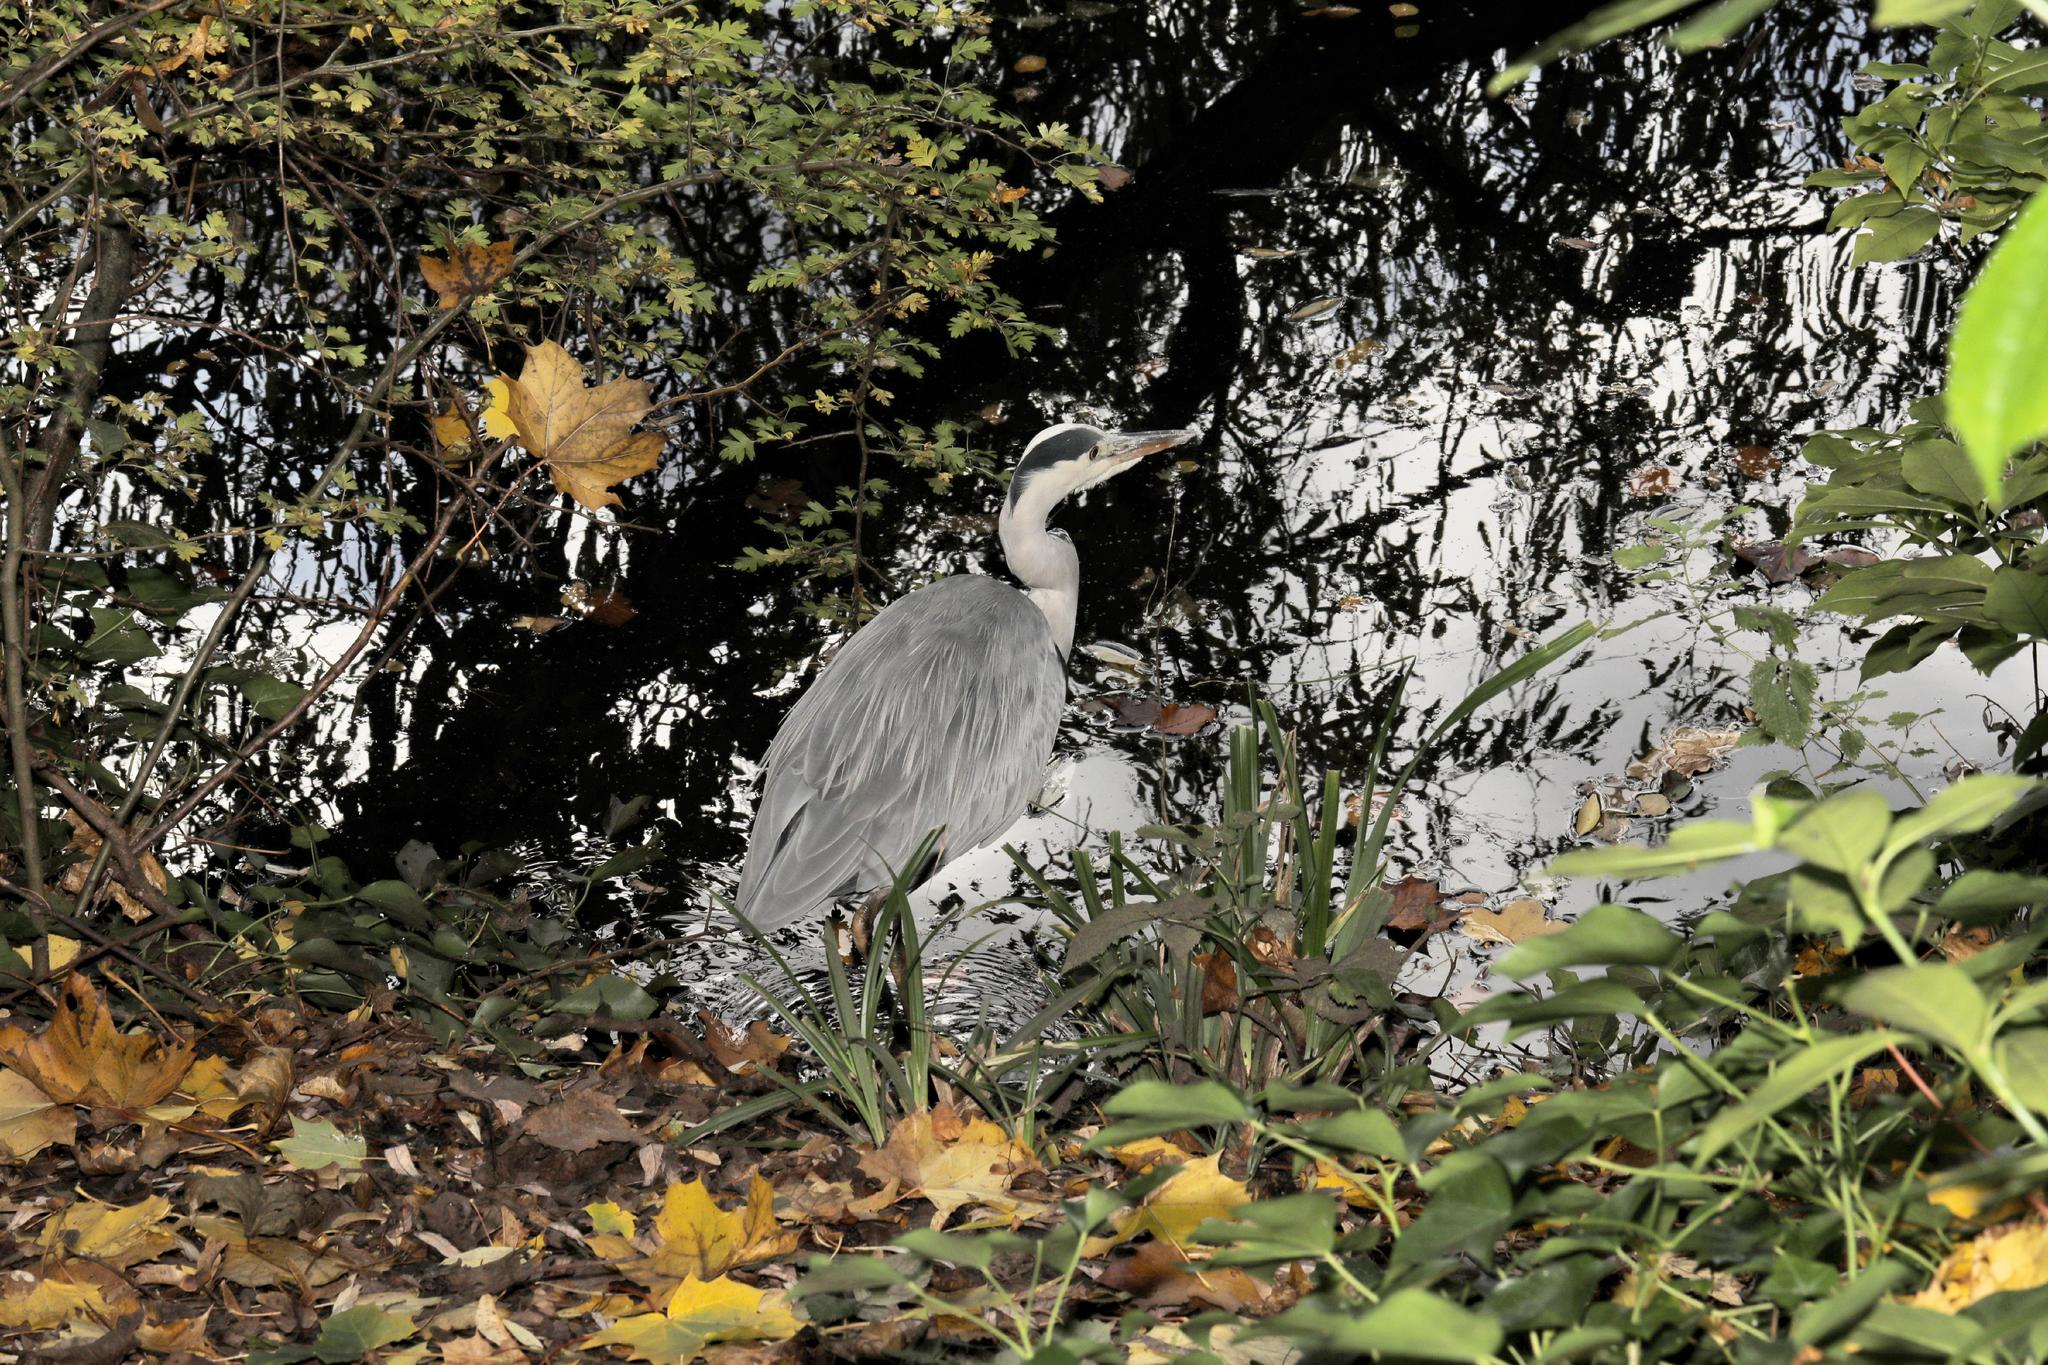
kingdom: Animalia
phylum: Chordata
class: Aves
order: Pelecaniformes
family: Ardeidae
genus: Ardea
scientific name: Ardea cinerea
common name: Grey heron
